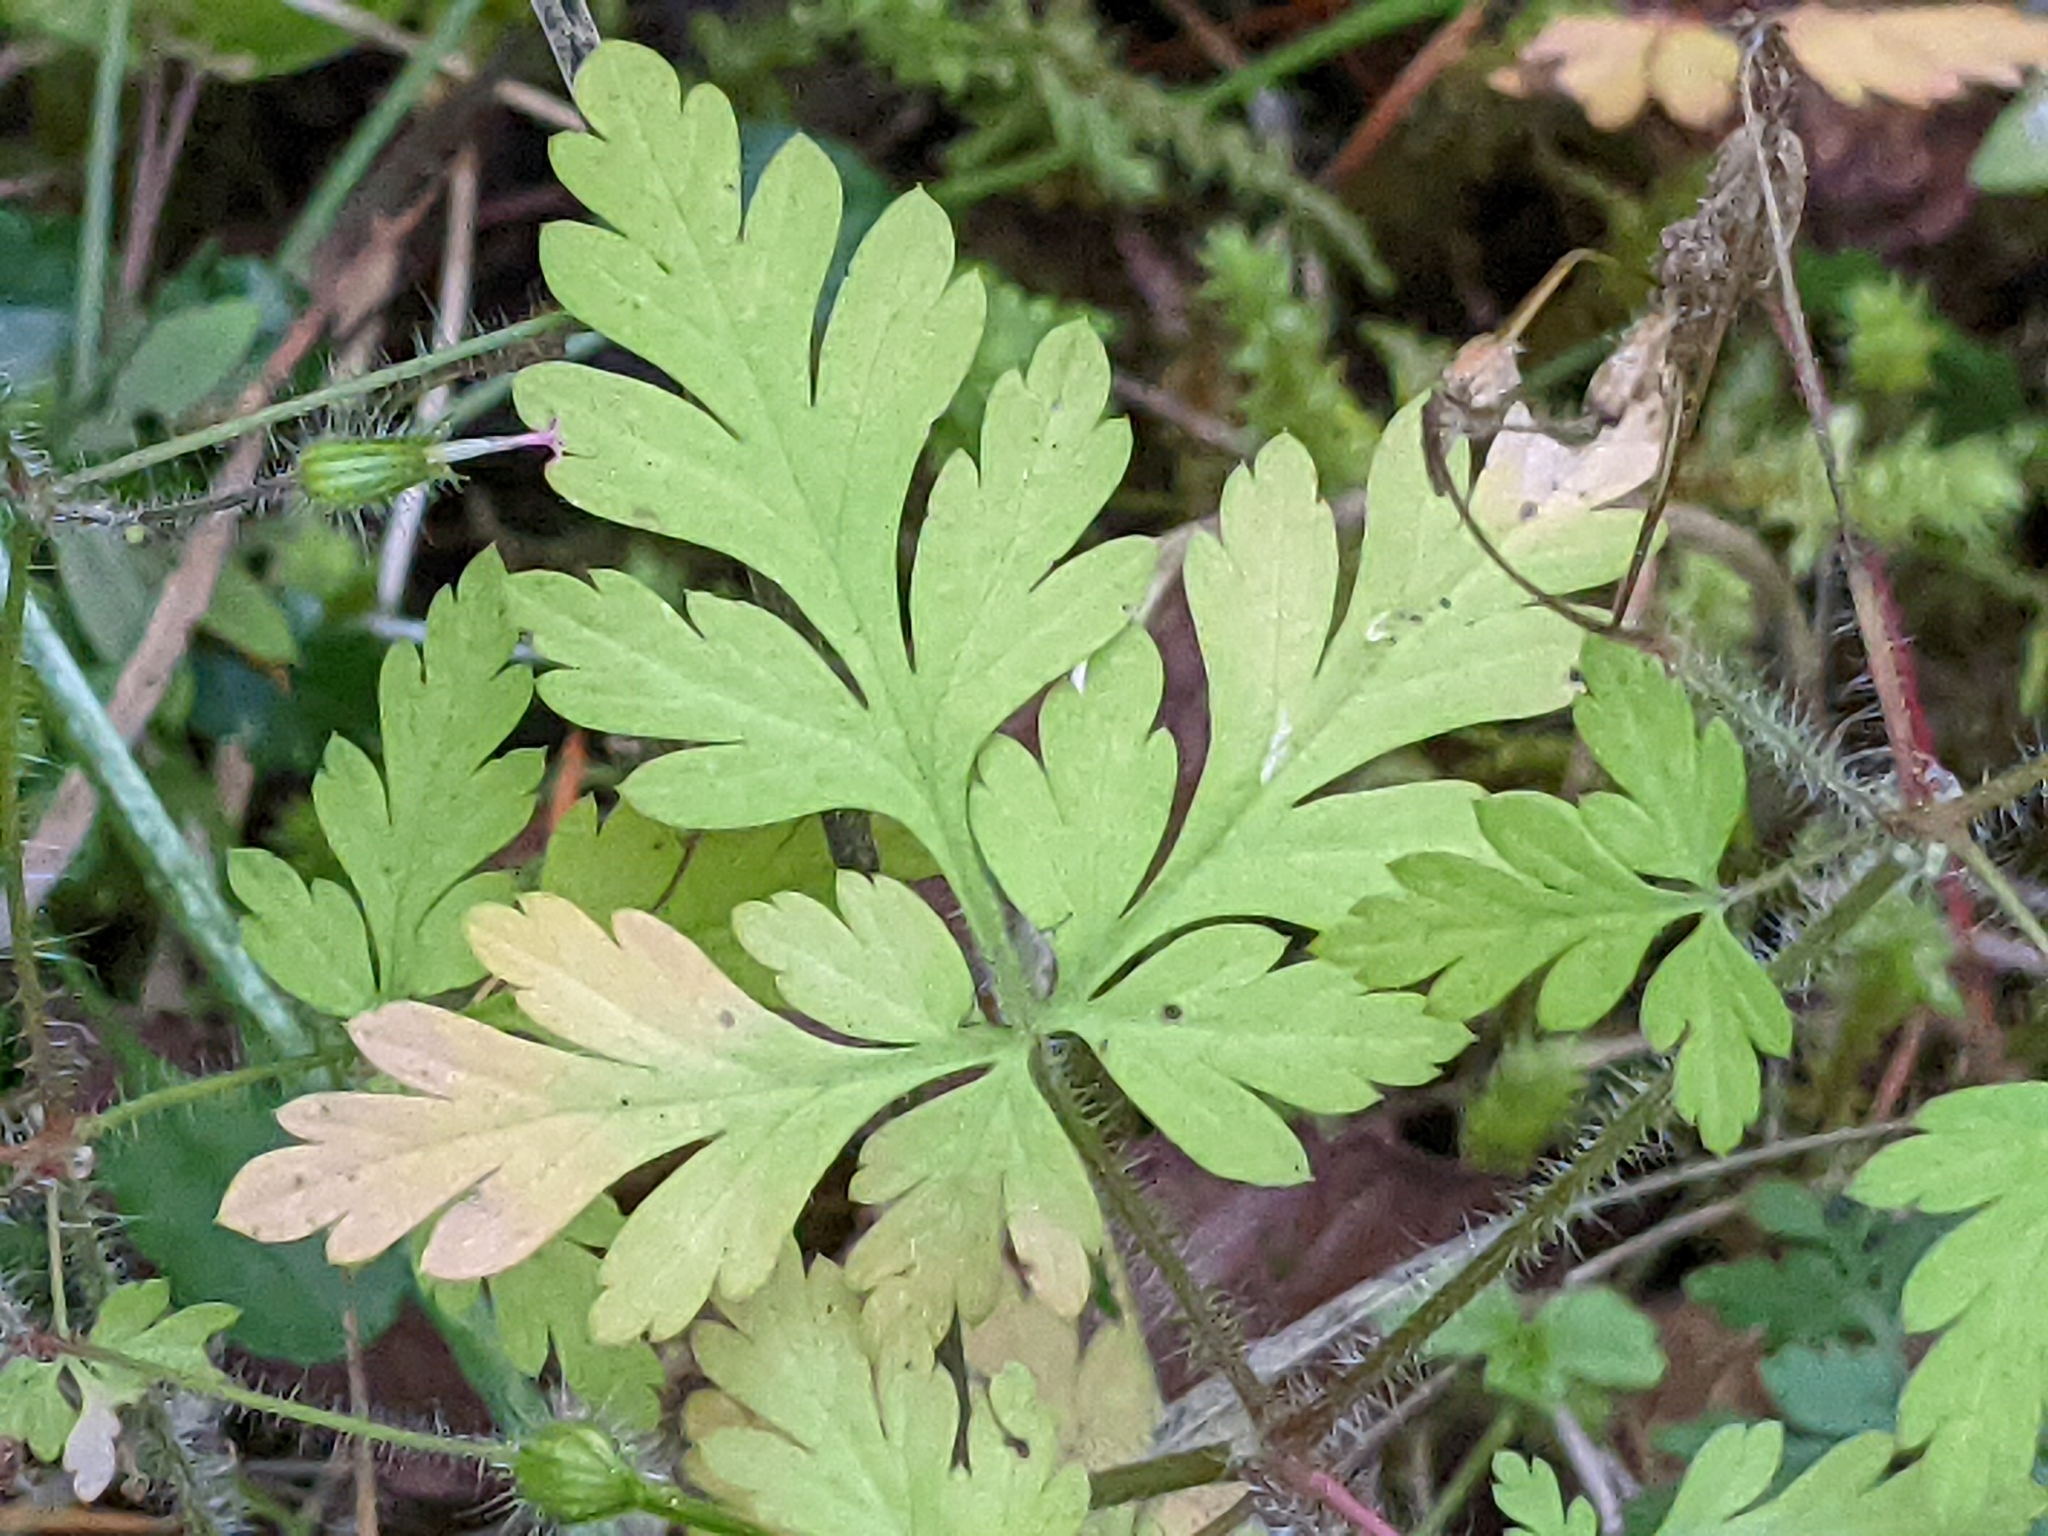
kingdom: Plantae
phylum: Tracheophyta
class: Magnoliopsida
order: Geraniales
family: Geraniaceae
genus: Geranium
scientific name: Geranium robertianum
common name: Herb-robert
